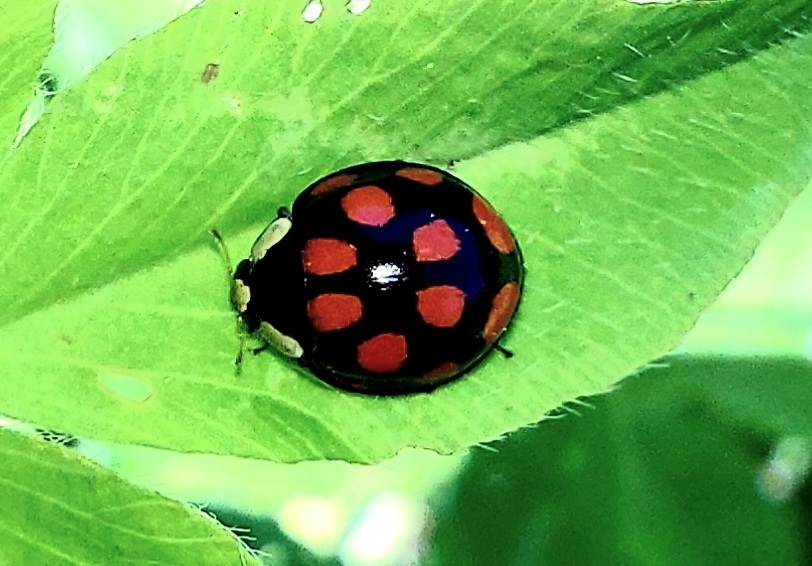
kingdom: Animalia
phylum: Arthropoda
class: Insecta
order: Coleoptera
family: Coccinellidae
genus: Harmonia
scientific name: Harmonia axyridis
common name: Harlequin ladybird
